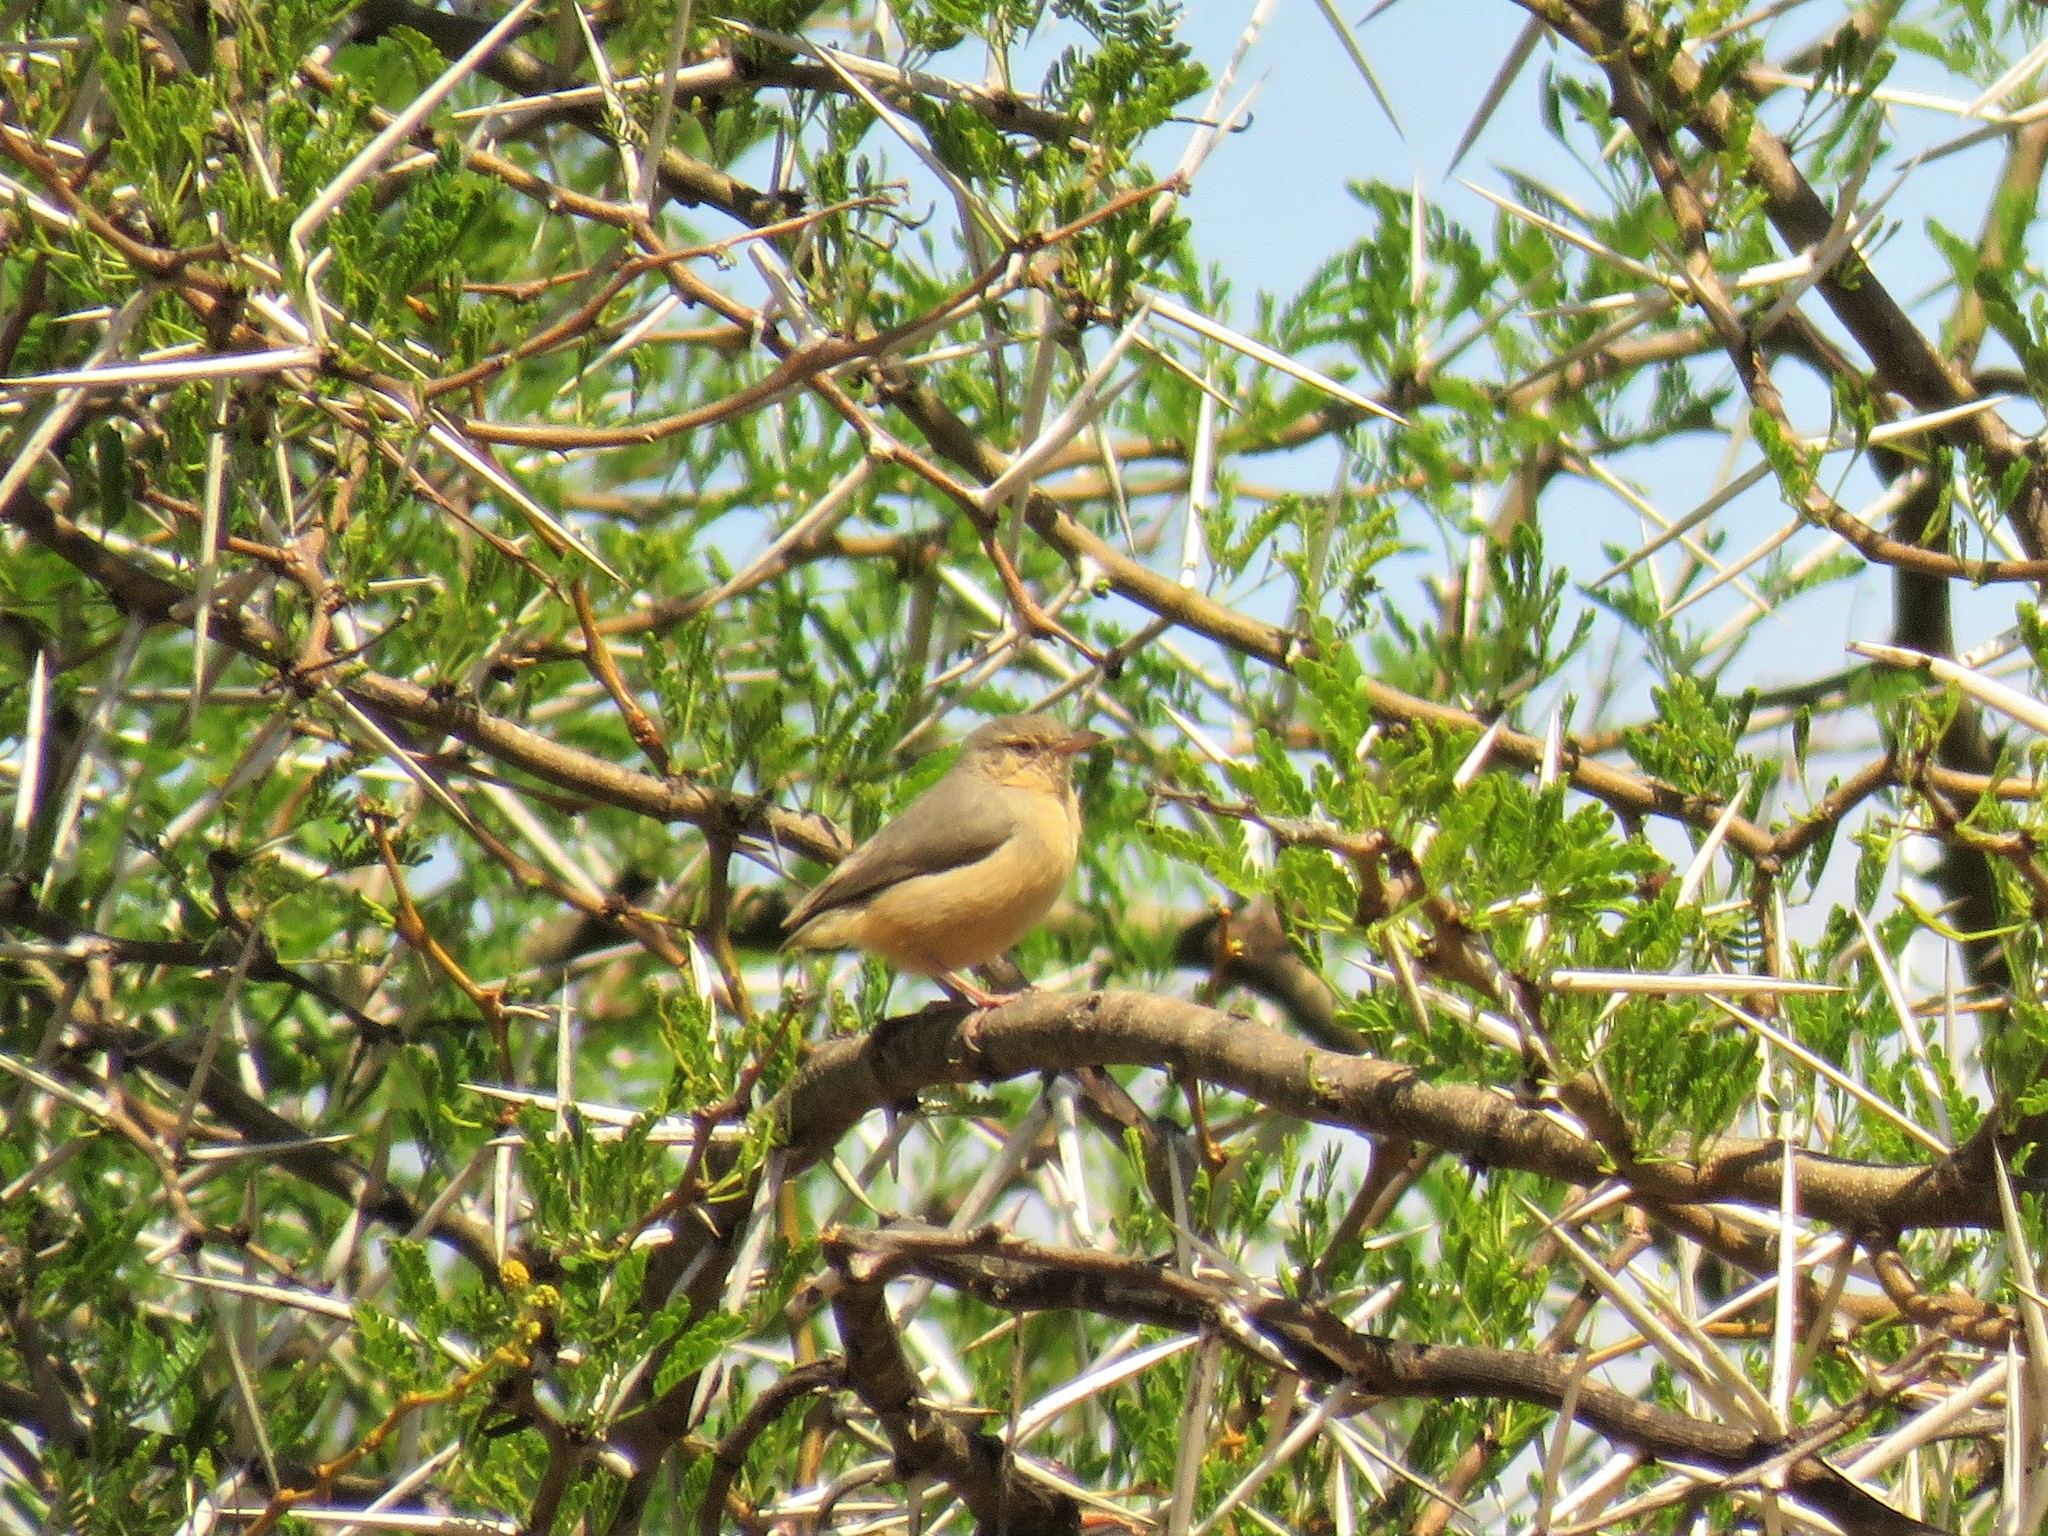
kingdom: Animalia
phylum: Chordata
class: Aves
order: Passeriformes
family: Macrosphenidae
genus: Sylvietta
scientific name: Sylvietta rufescens
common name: Long-billed crombec
